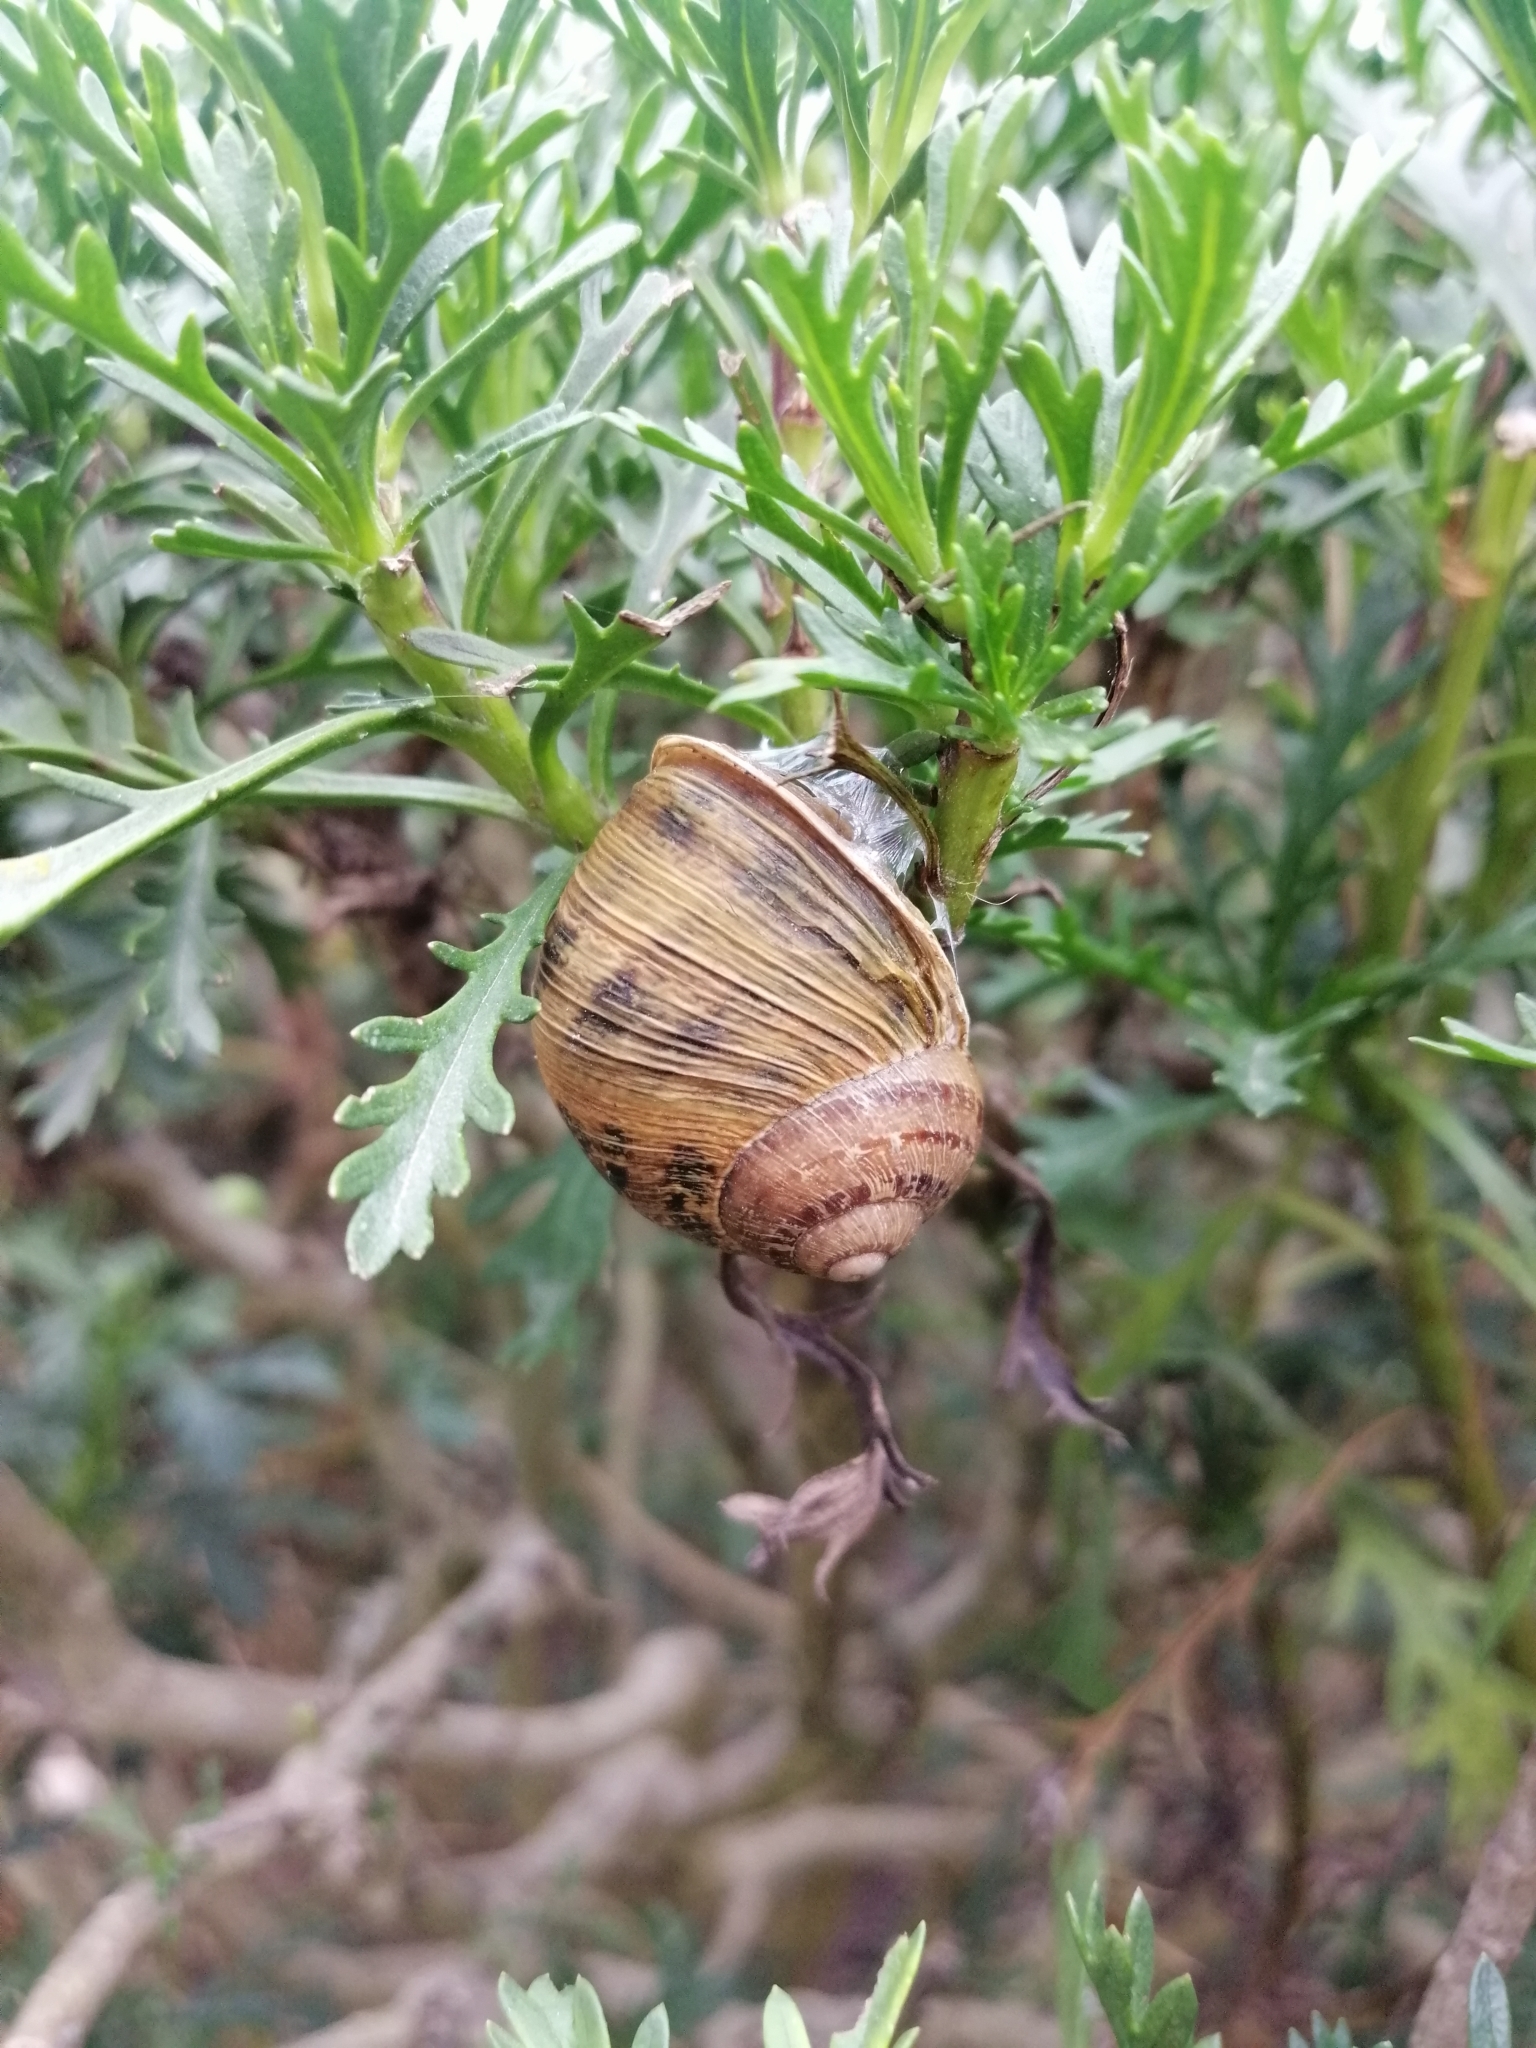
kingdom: Animalia
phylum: Mollusca
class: Gastropoda
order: Stylommatophora
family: Helicidae
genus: Cornu
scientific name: Cornu aspersum
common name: Brown garden snail
